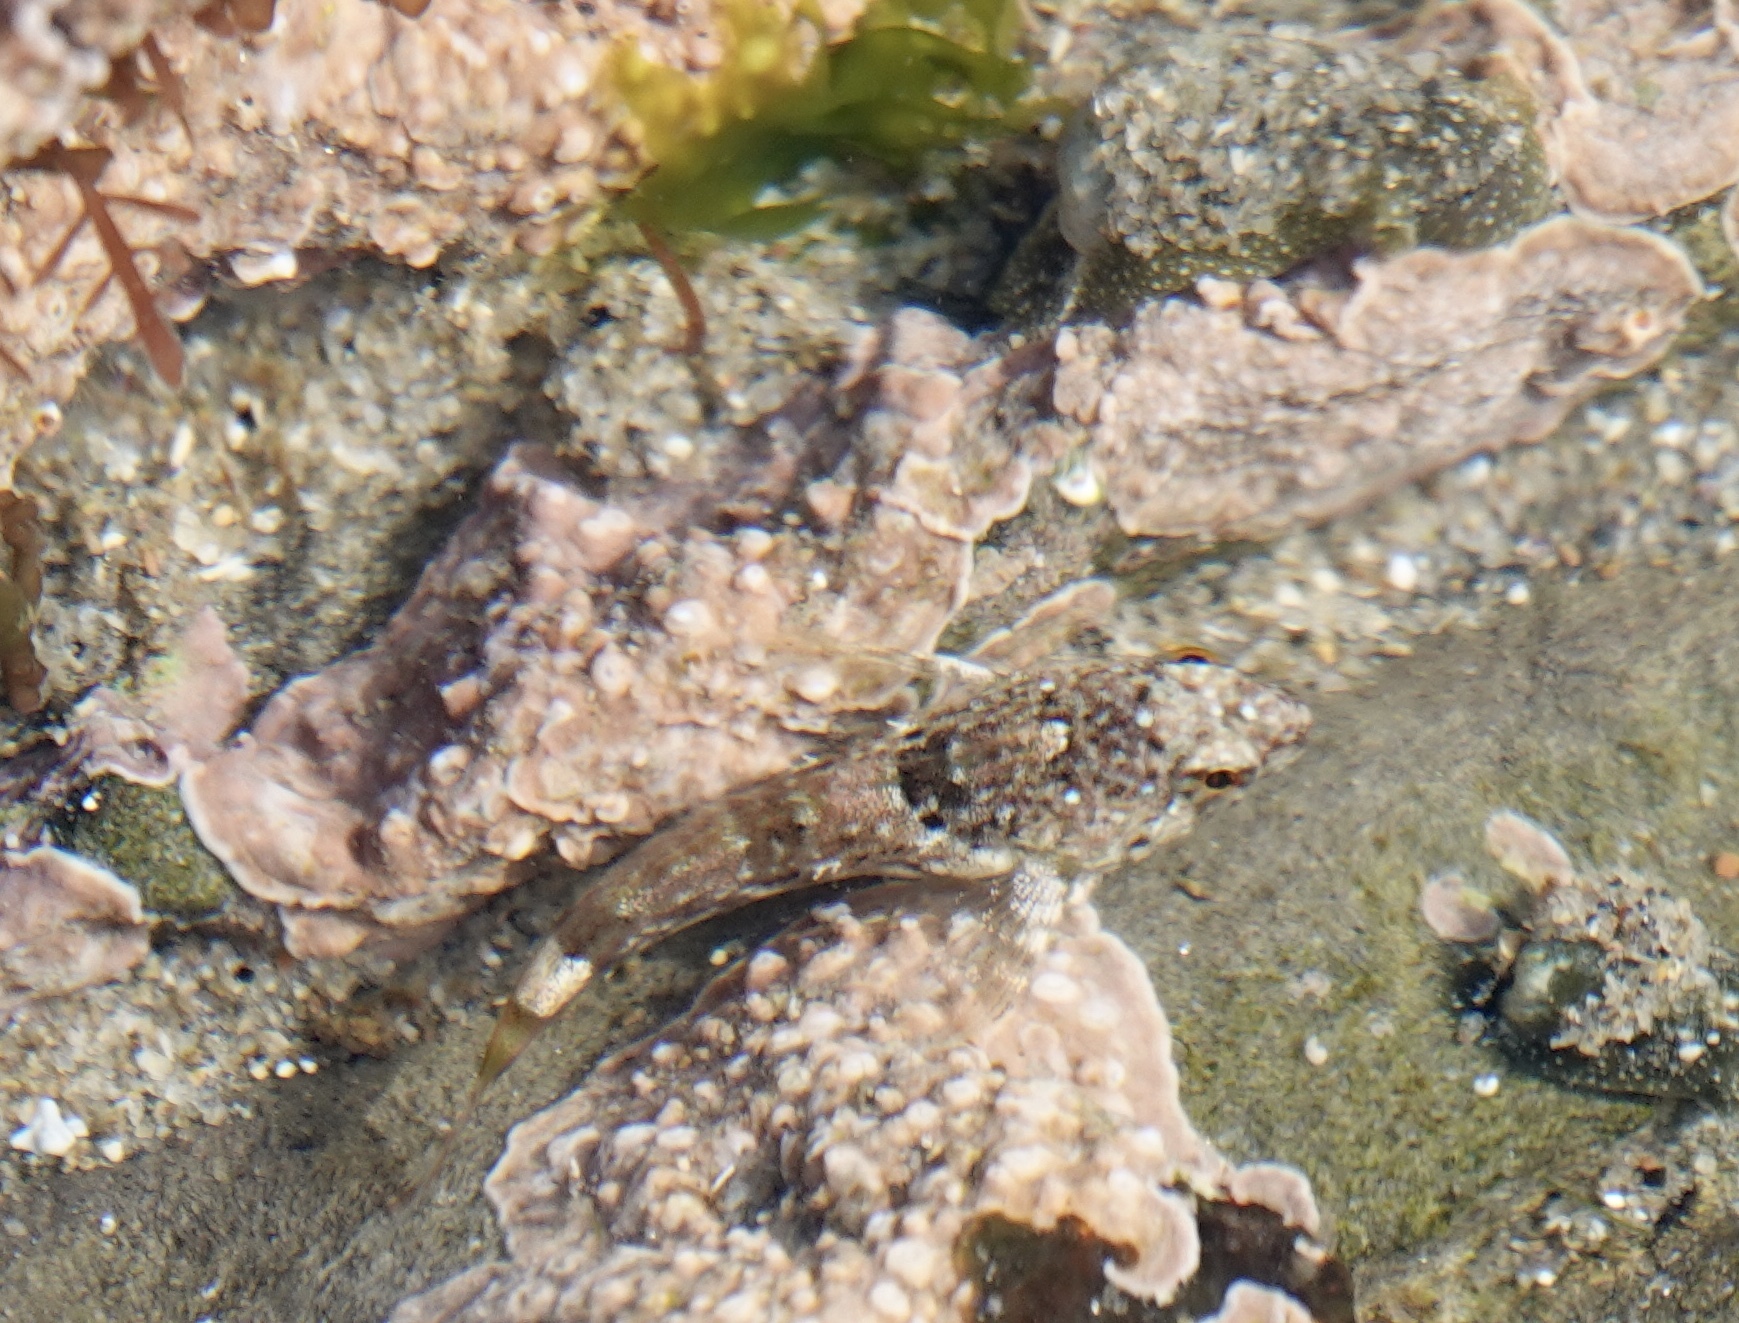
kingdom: Animalia
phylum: Chordata
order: Scorpaeniformes
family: Cottidae
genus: Clinocottus
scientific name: Clinocottus analis
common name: Woolly sculpin
